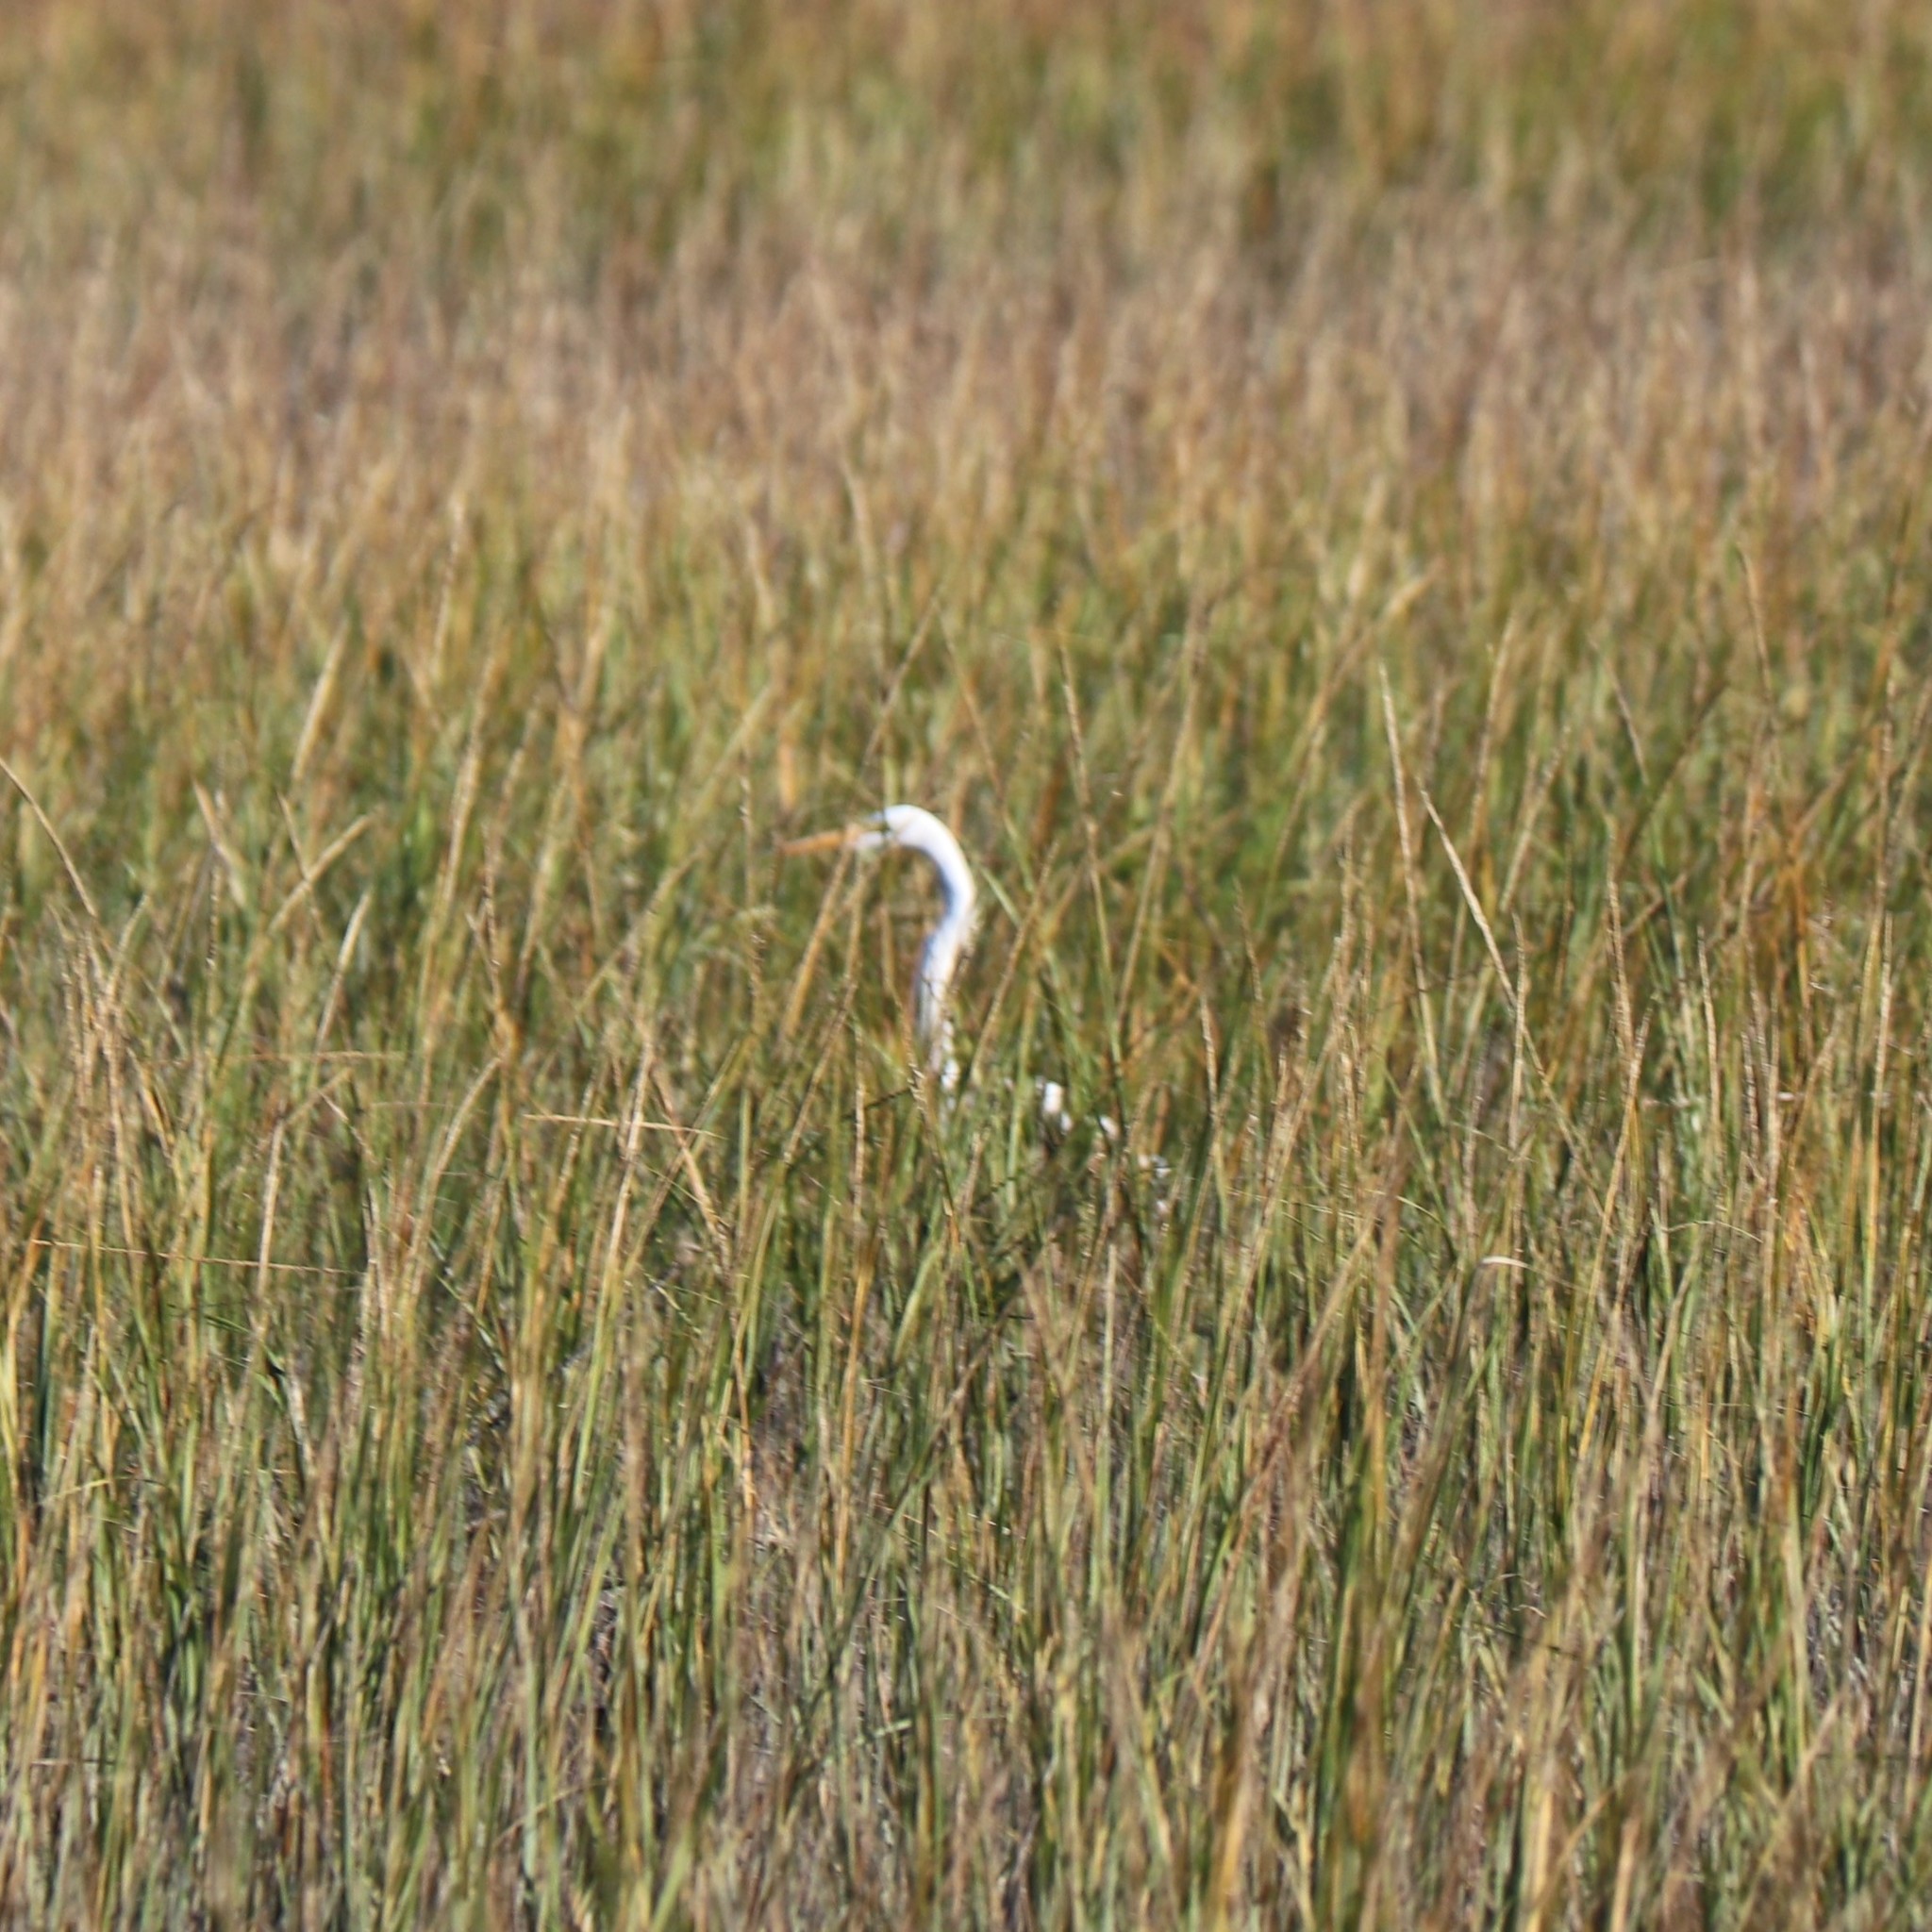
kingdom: Animalia
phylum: Chordata
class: Aves
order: Pelecaniformes
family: Ardeidae
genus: Ardea
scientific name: Ardea alba
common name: Great egret
